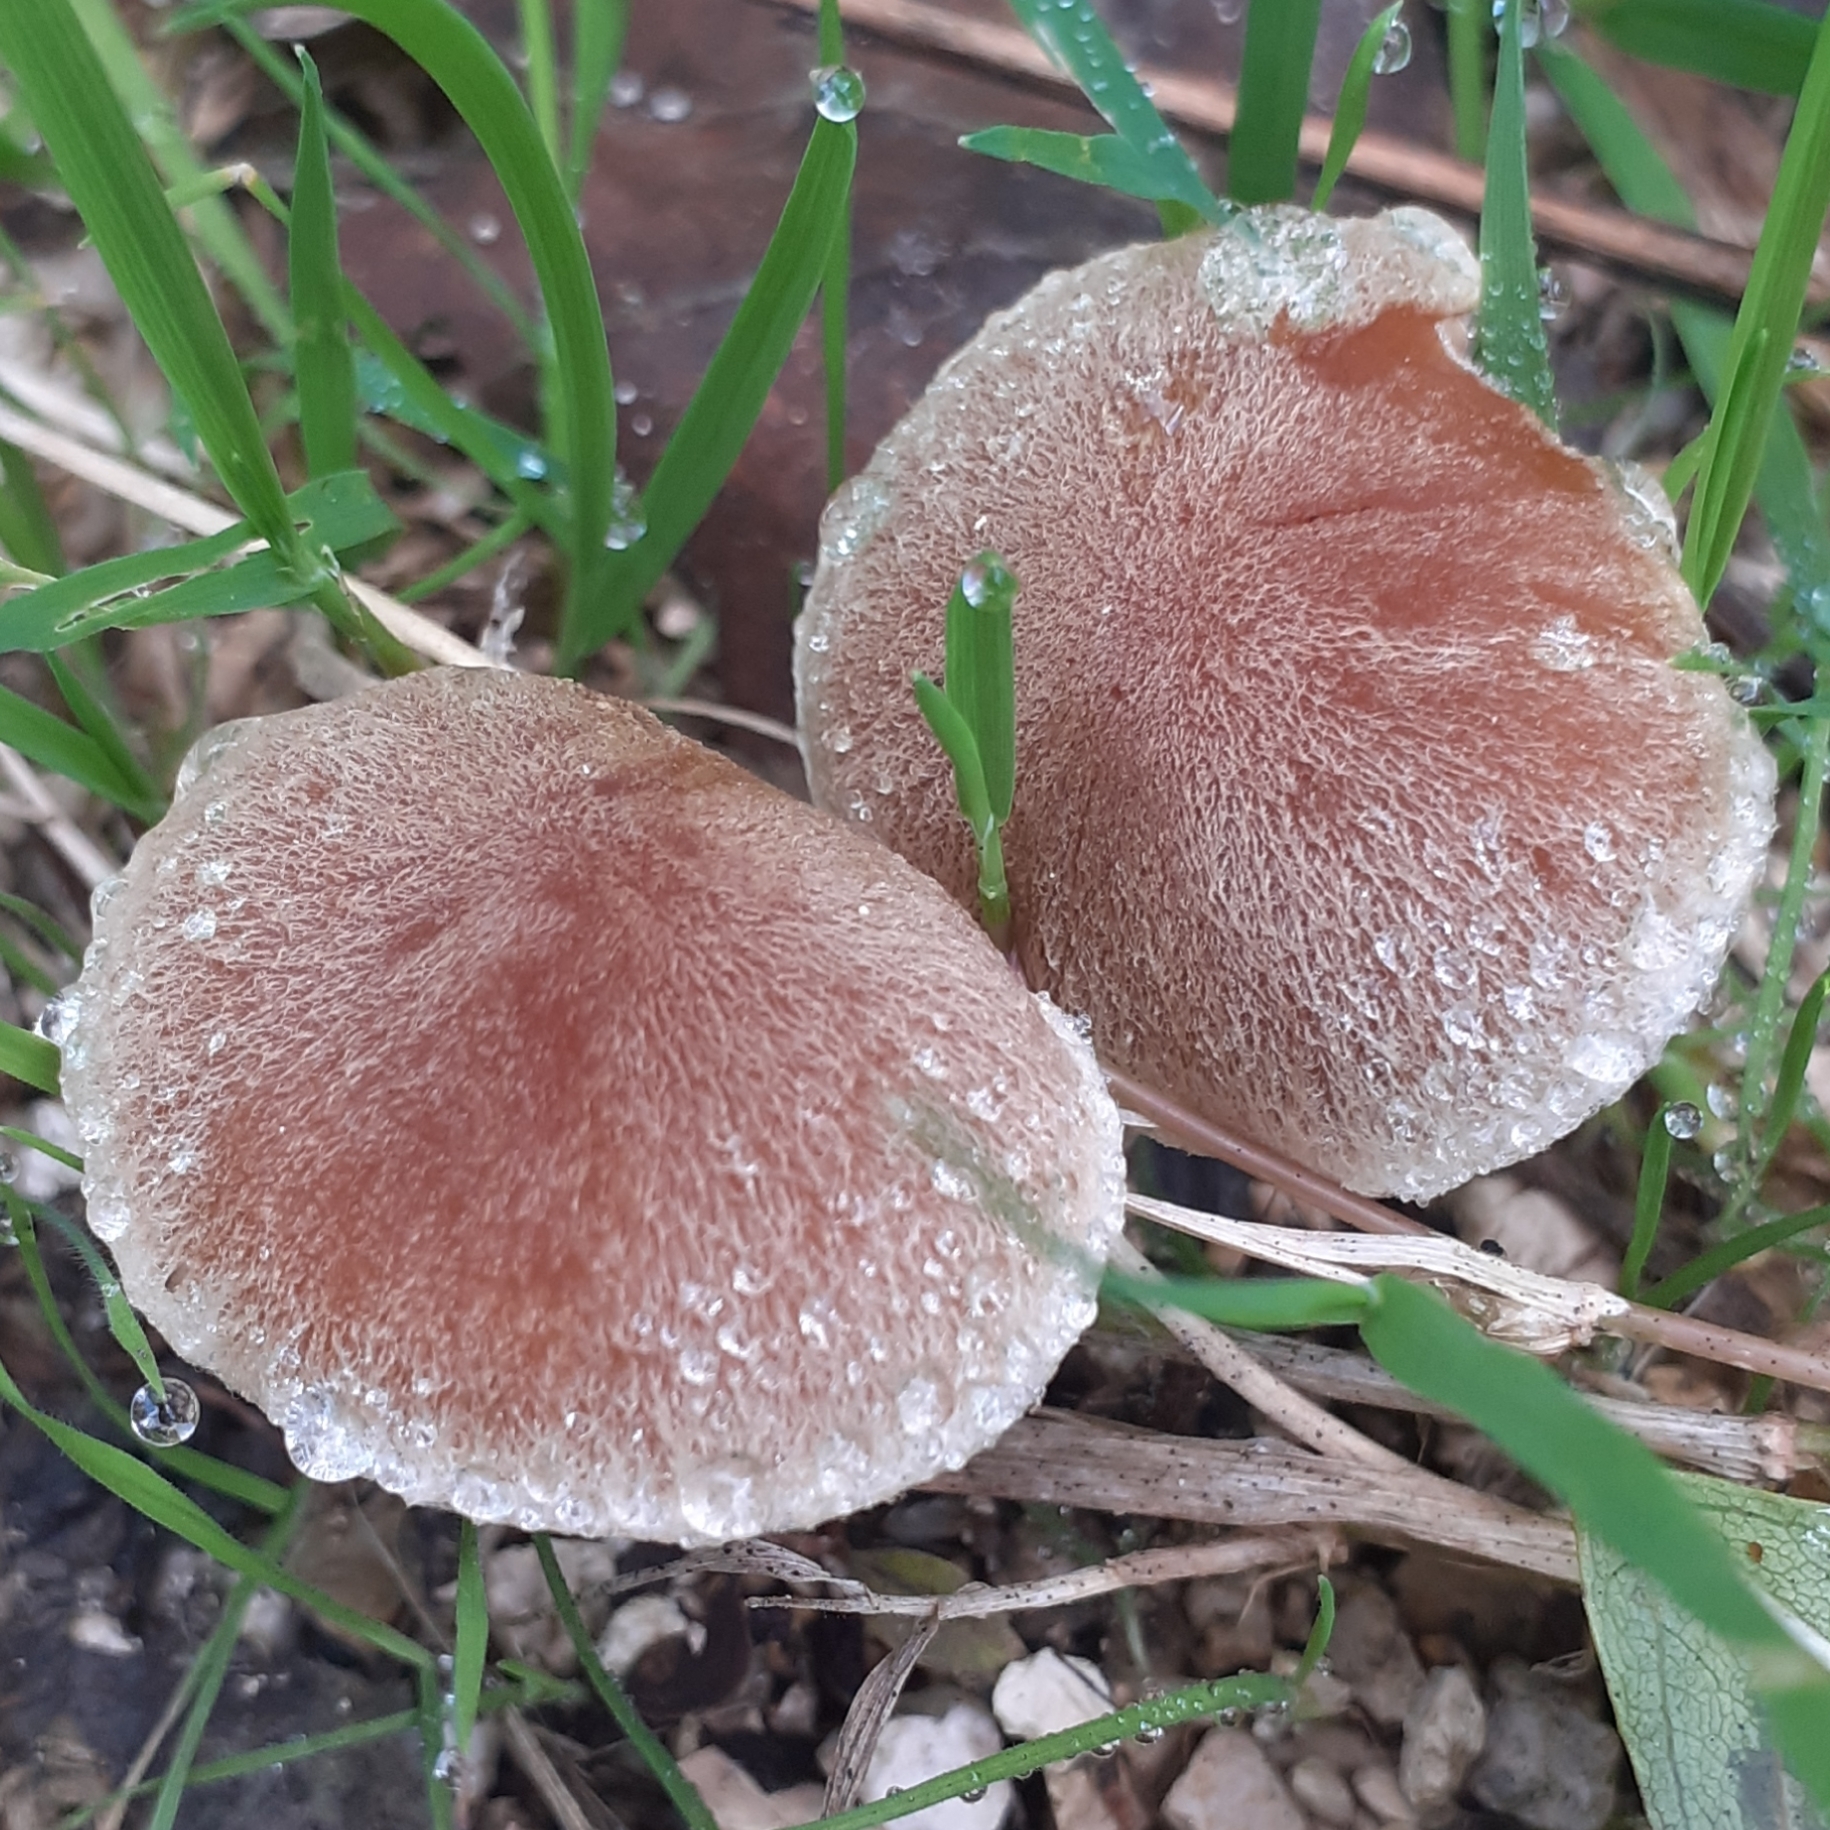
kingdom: Fungi
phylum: Basidiomycota
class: Agaricomycetes
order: Agaricales
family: Psathyrellaceae
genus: Lacrymaria
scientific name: Lacrymaria lacrymabunda
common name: Weeping widow
